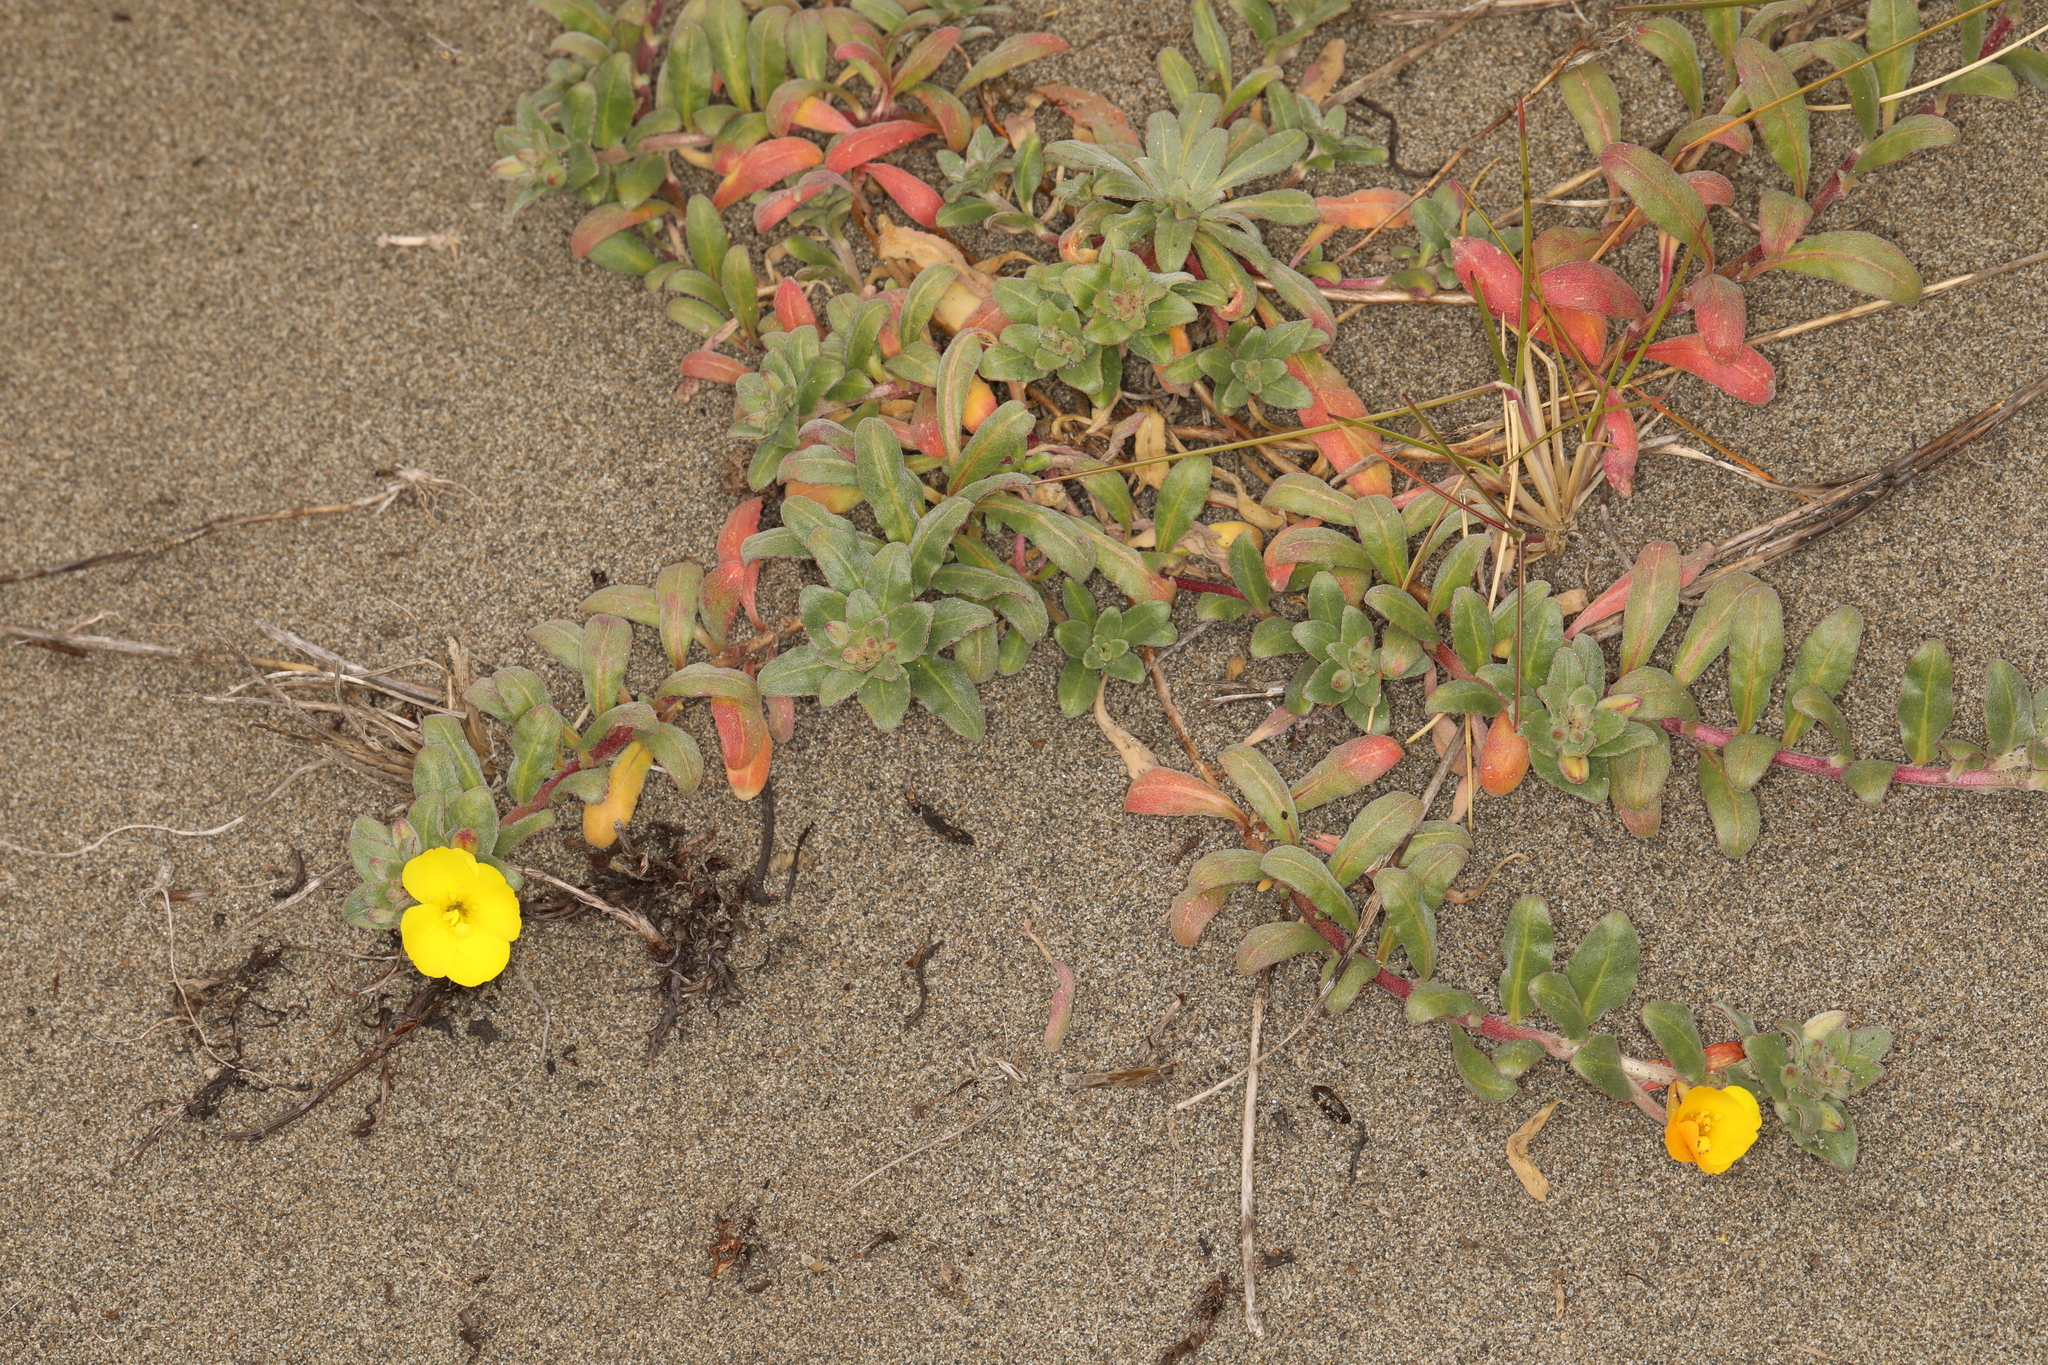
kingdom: Plantae
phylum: Tracheophyta
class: Magnoliopsida
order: Myrtales
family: Onagraceae
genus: Camissoniopsis
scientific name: Camissoniopsis cheiranthifolia
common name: Beach suncup
